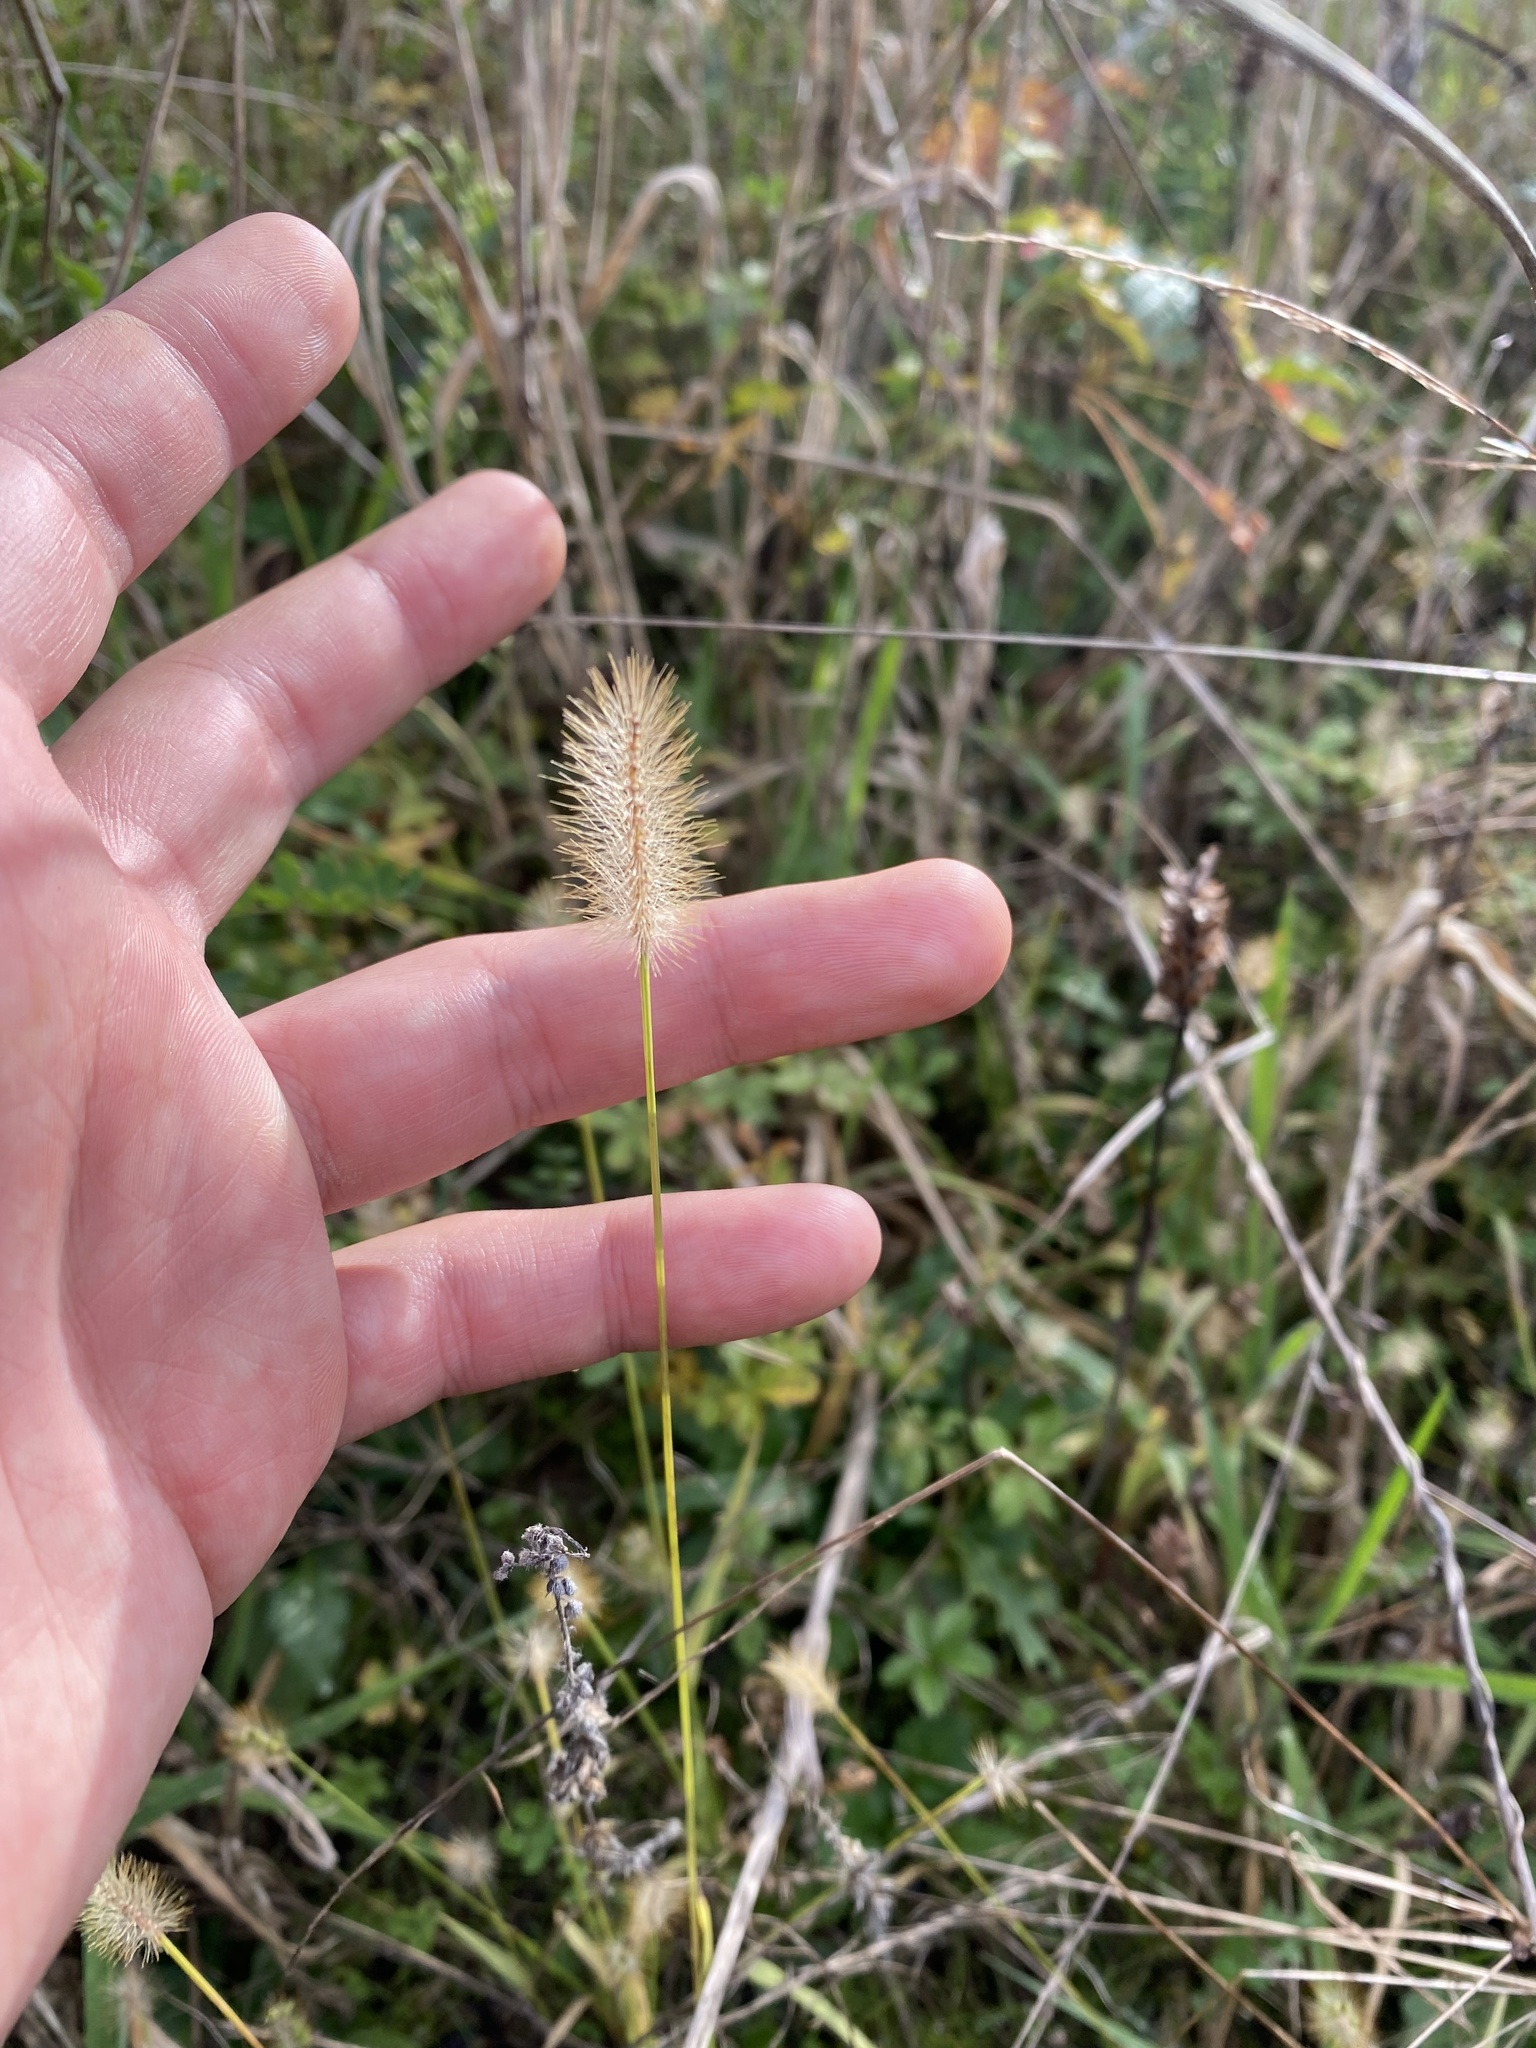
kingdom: Plantae
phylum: Tracheophyta
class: Liliopsida
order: Poales
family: Poaceae
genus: Setaria
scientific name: Setaria pumila
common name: Yellow bristle-grass
